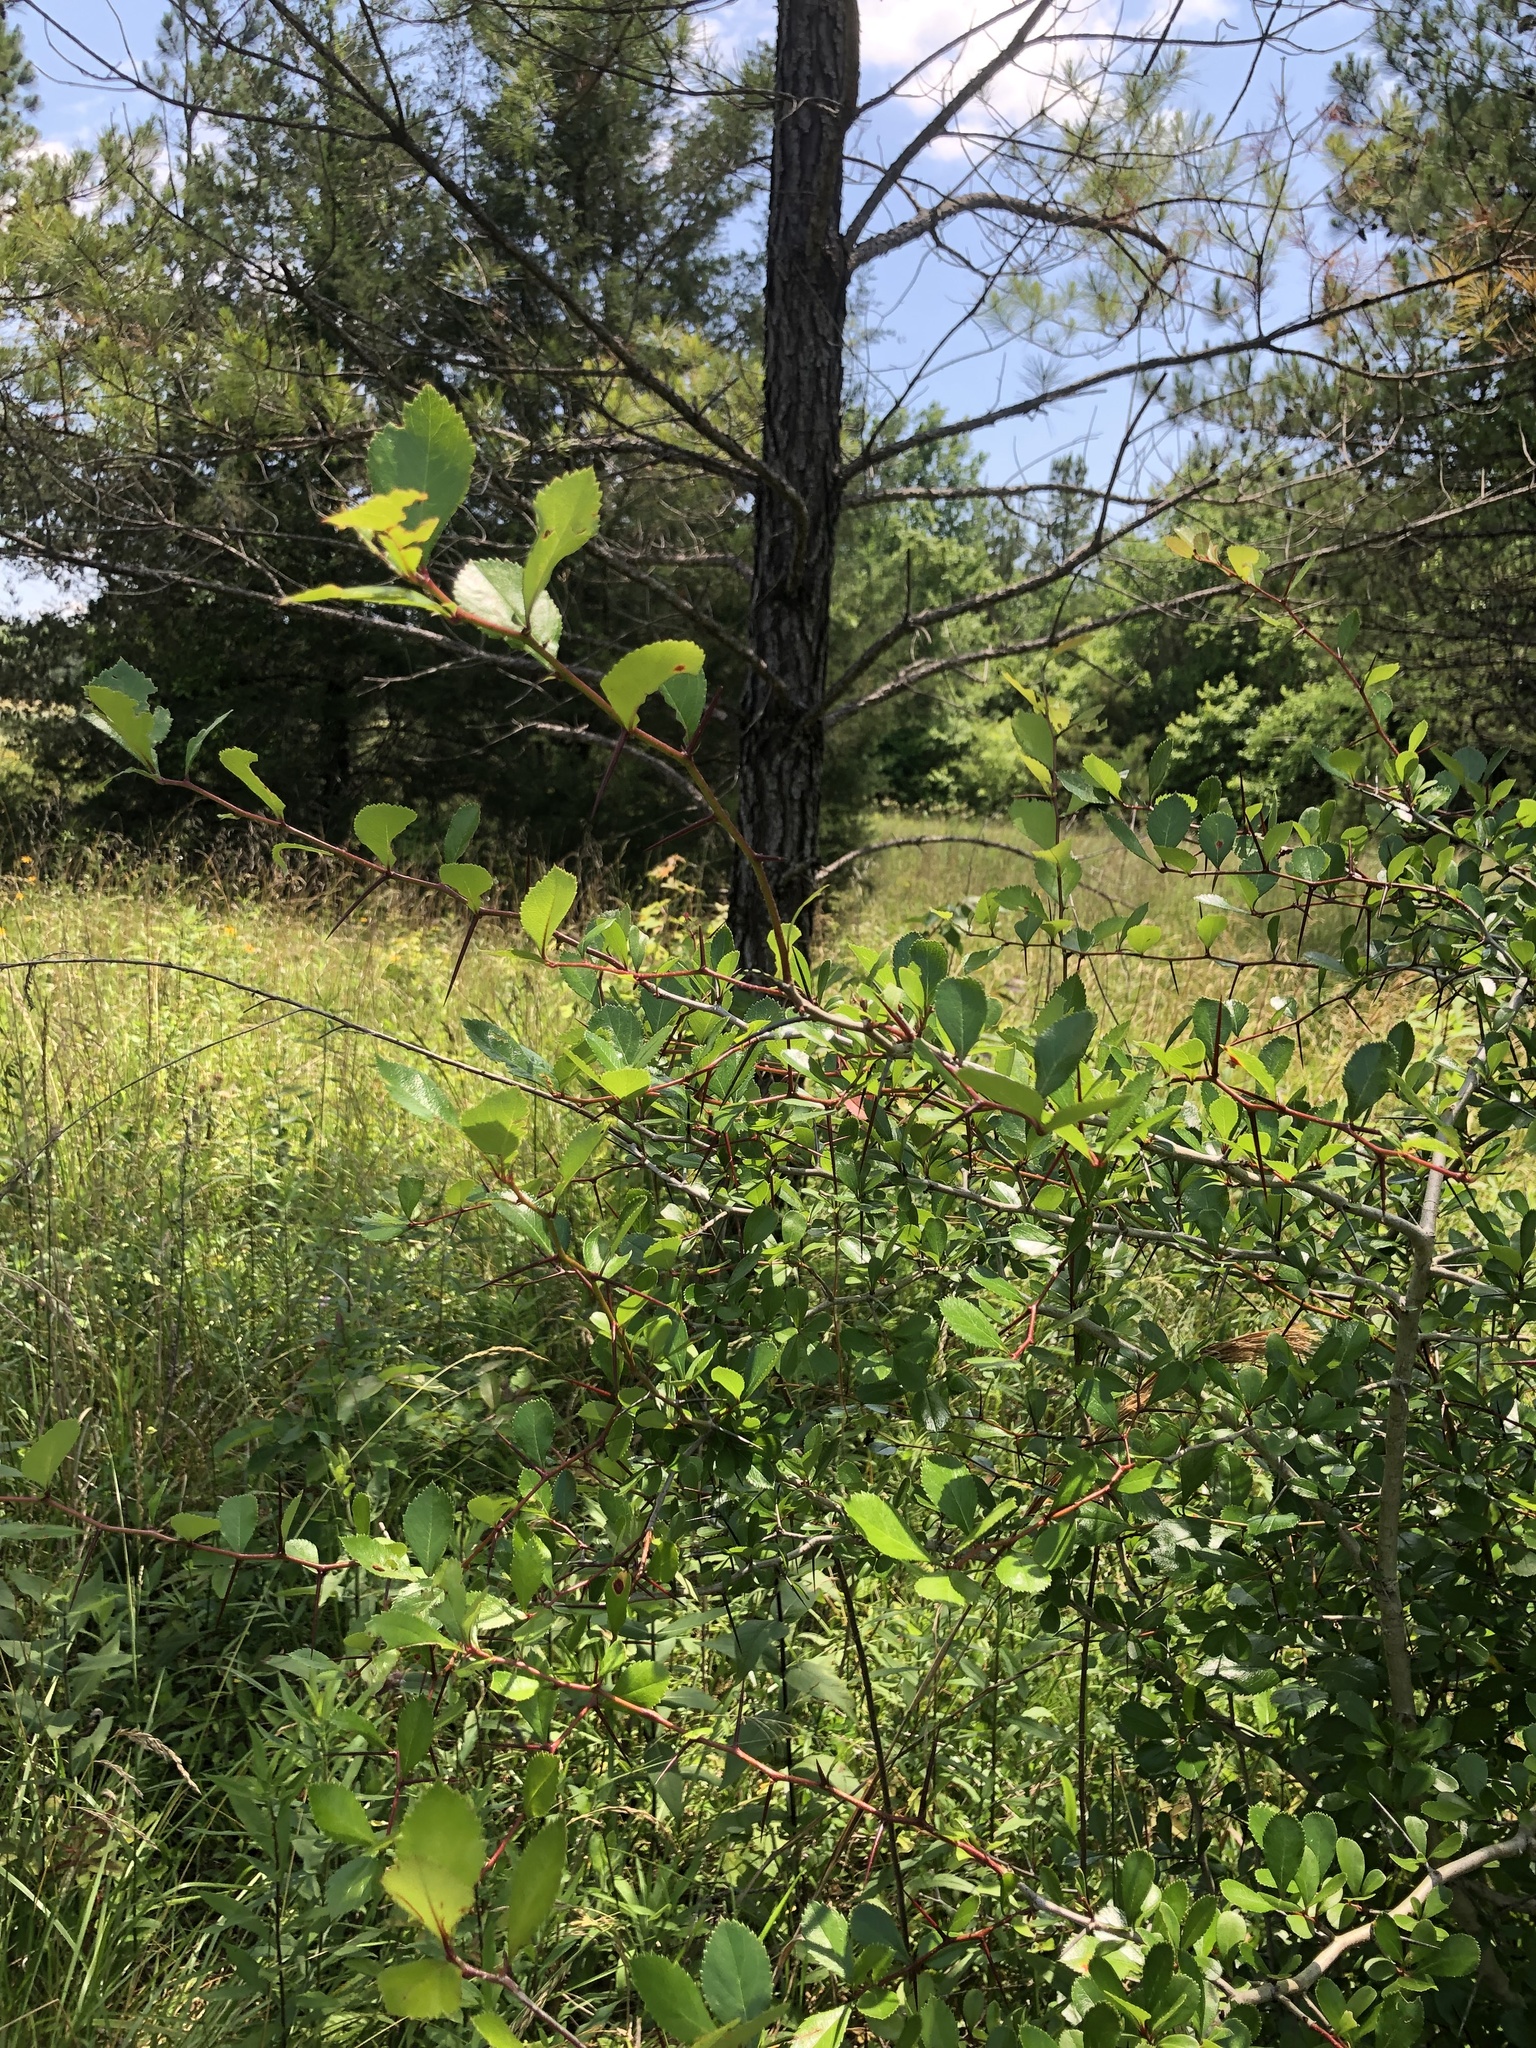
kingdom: Plantae
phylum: Tracheophyta
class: Magnoliopsida
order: Rosales
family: Rosaceae
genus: Crataegus
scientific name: Crataegus berberifolia
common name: Barberry hawthorn
